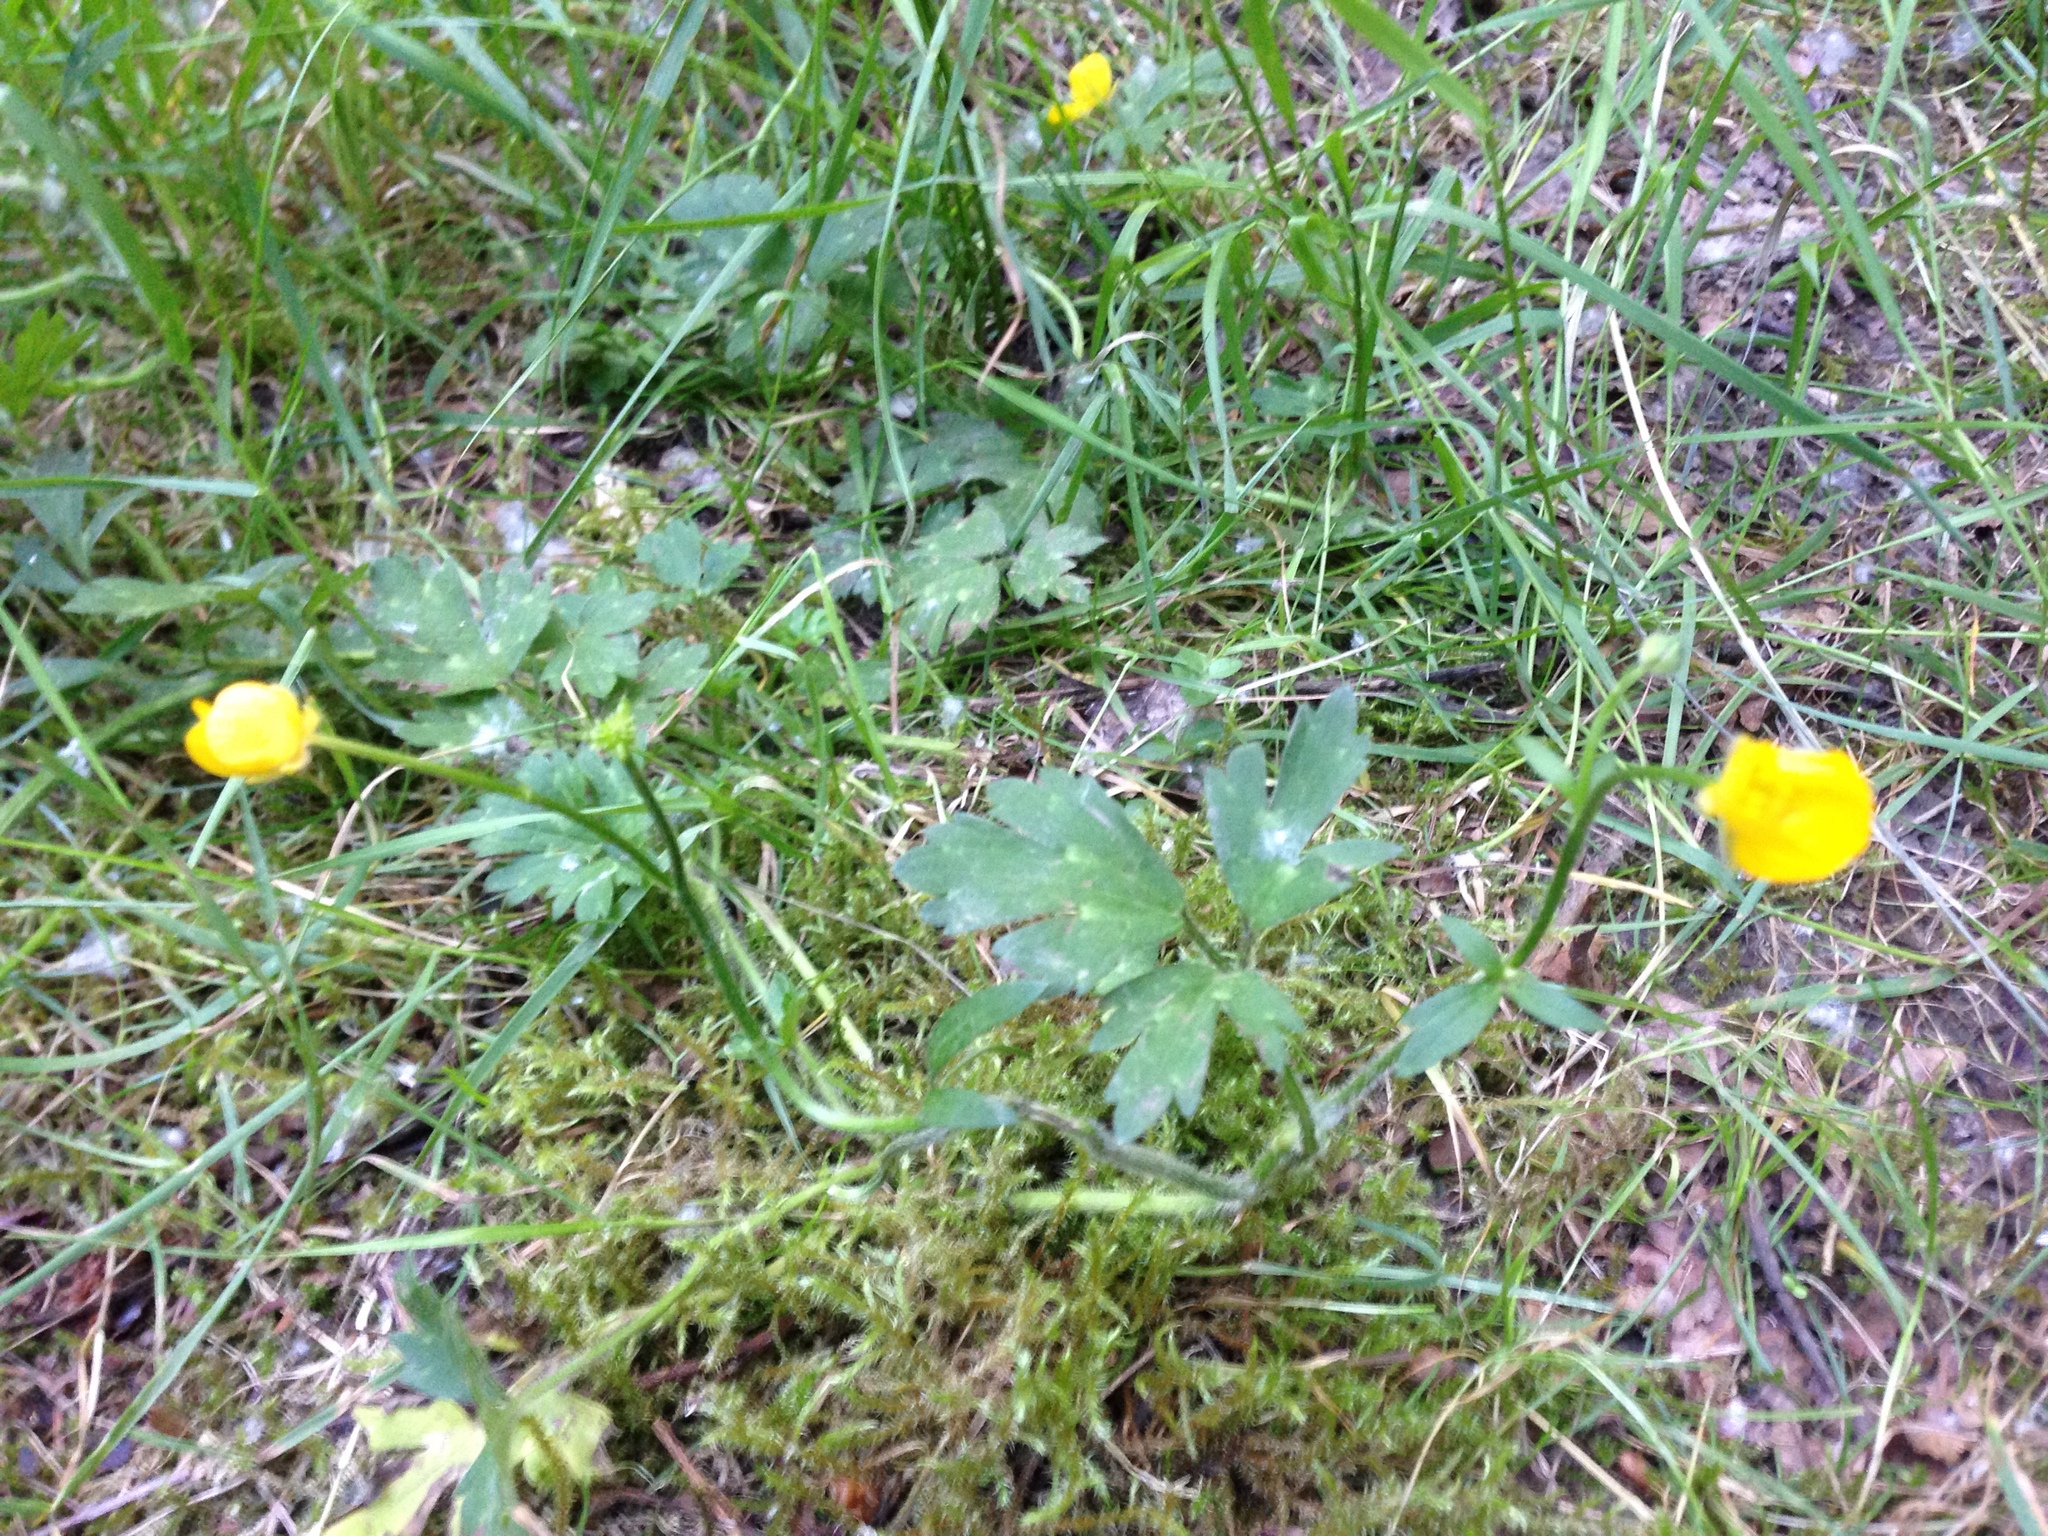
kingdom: Plantae
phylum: Tracheophyta
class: Magnoliopsida
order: Ranunculales
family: Ranunculaceae
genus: Ranunculus
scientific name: Ranunculus repens
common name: Creeping buttercup
